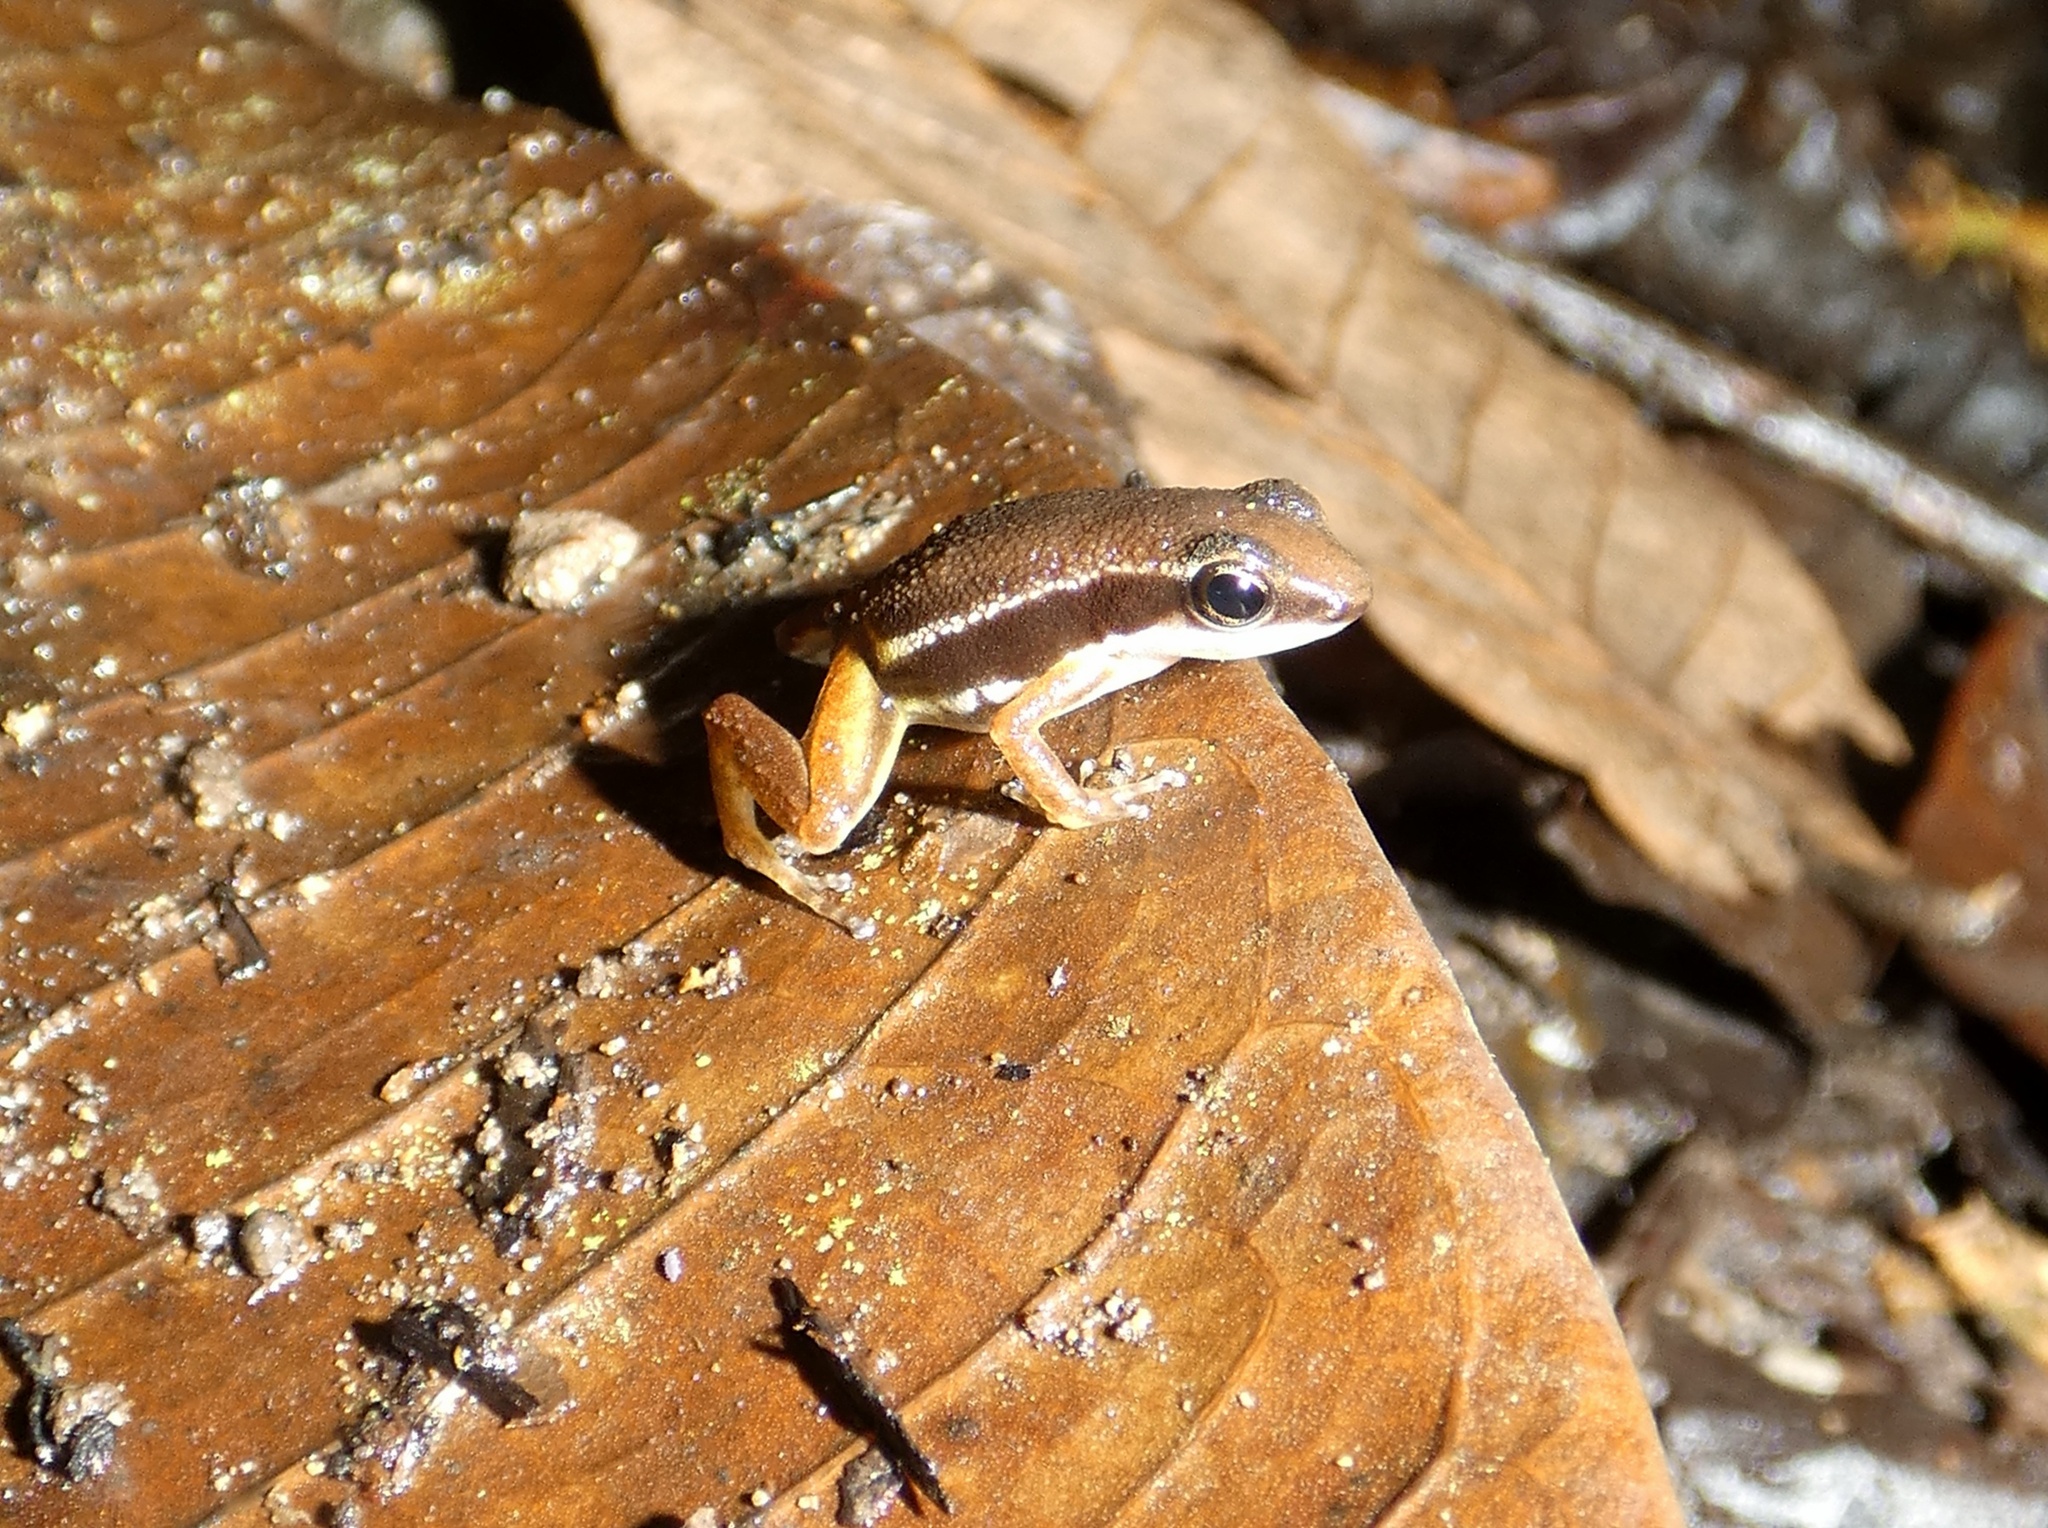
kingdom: Animalia
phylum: Chordata
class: Amphibia
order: Anura
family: Dendrobatidae
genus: Silverstoneia
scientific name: Silverstoneia flotator
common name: Rainforest rocket frog
